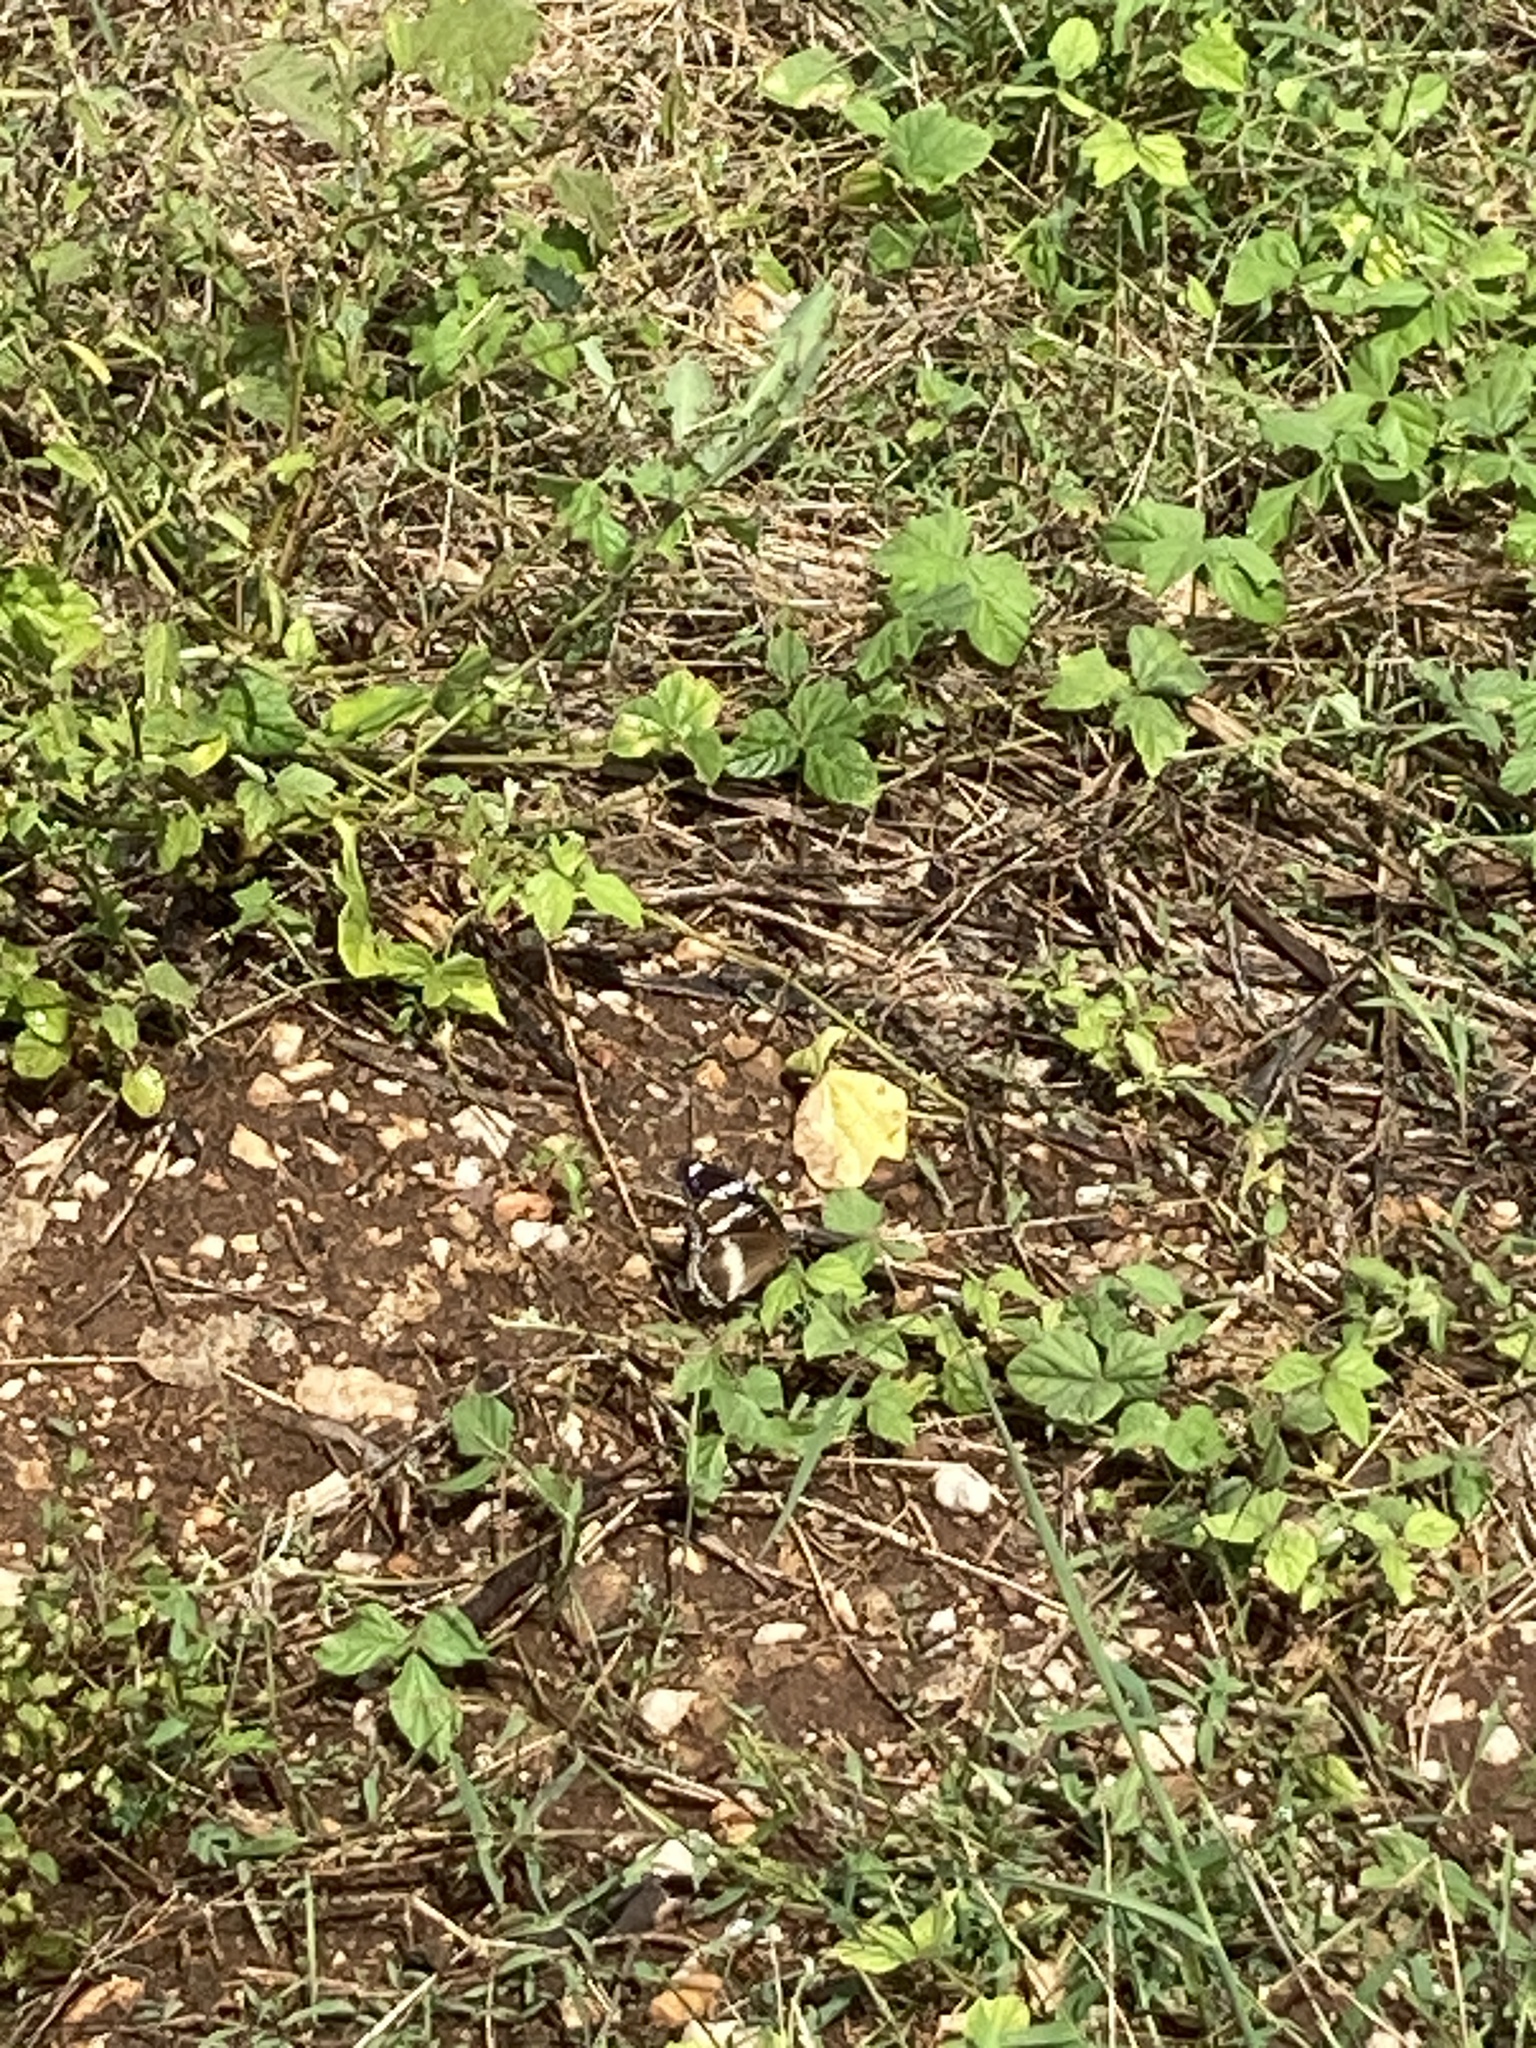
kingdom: Animalia
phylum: Arthropoda
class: Insecta
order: Lepidoptera
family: Nymphalidae
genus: Hypolimnas
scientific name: Hypolimnas bolina
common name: Great eggfly
